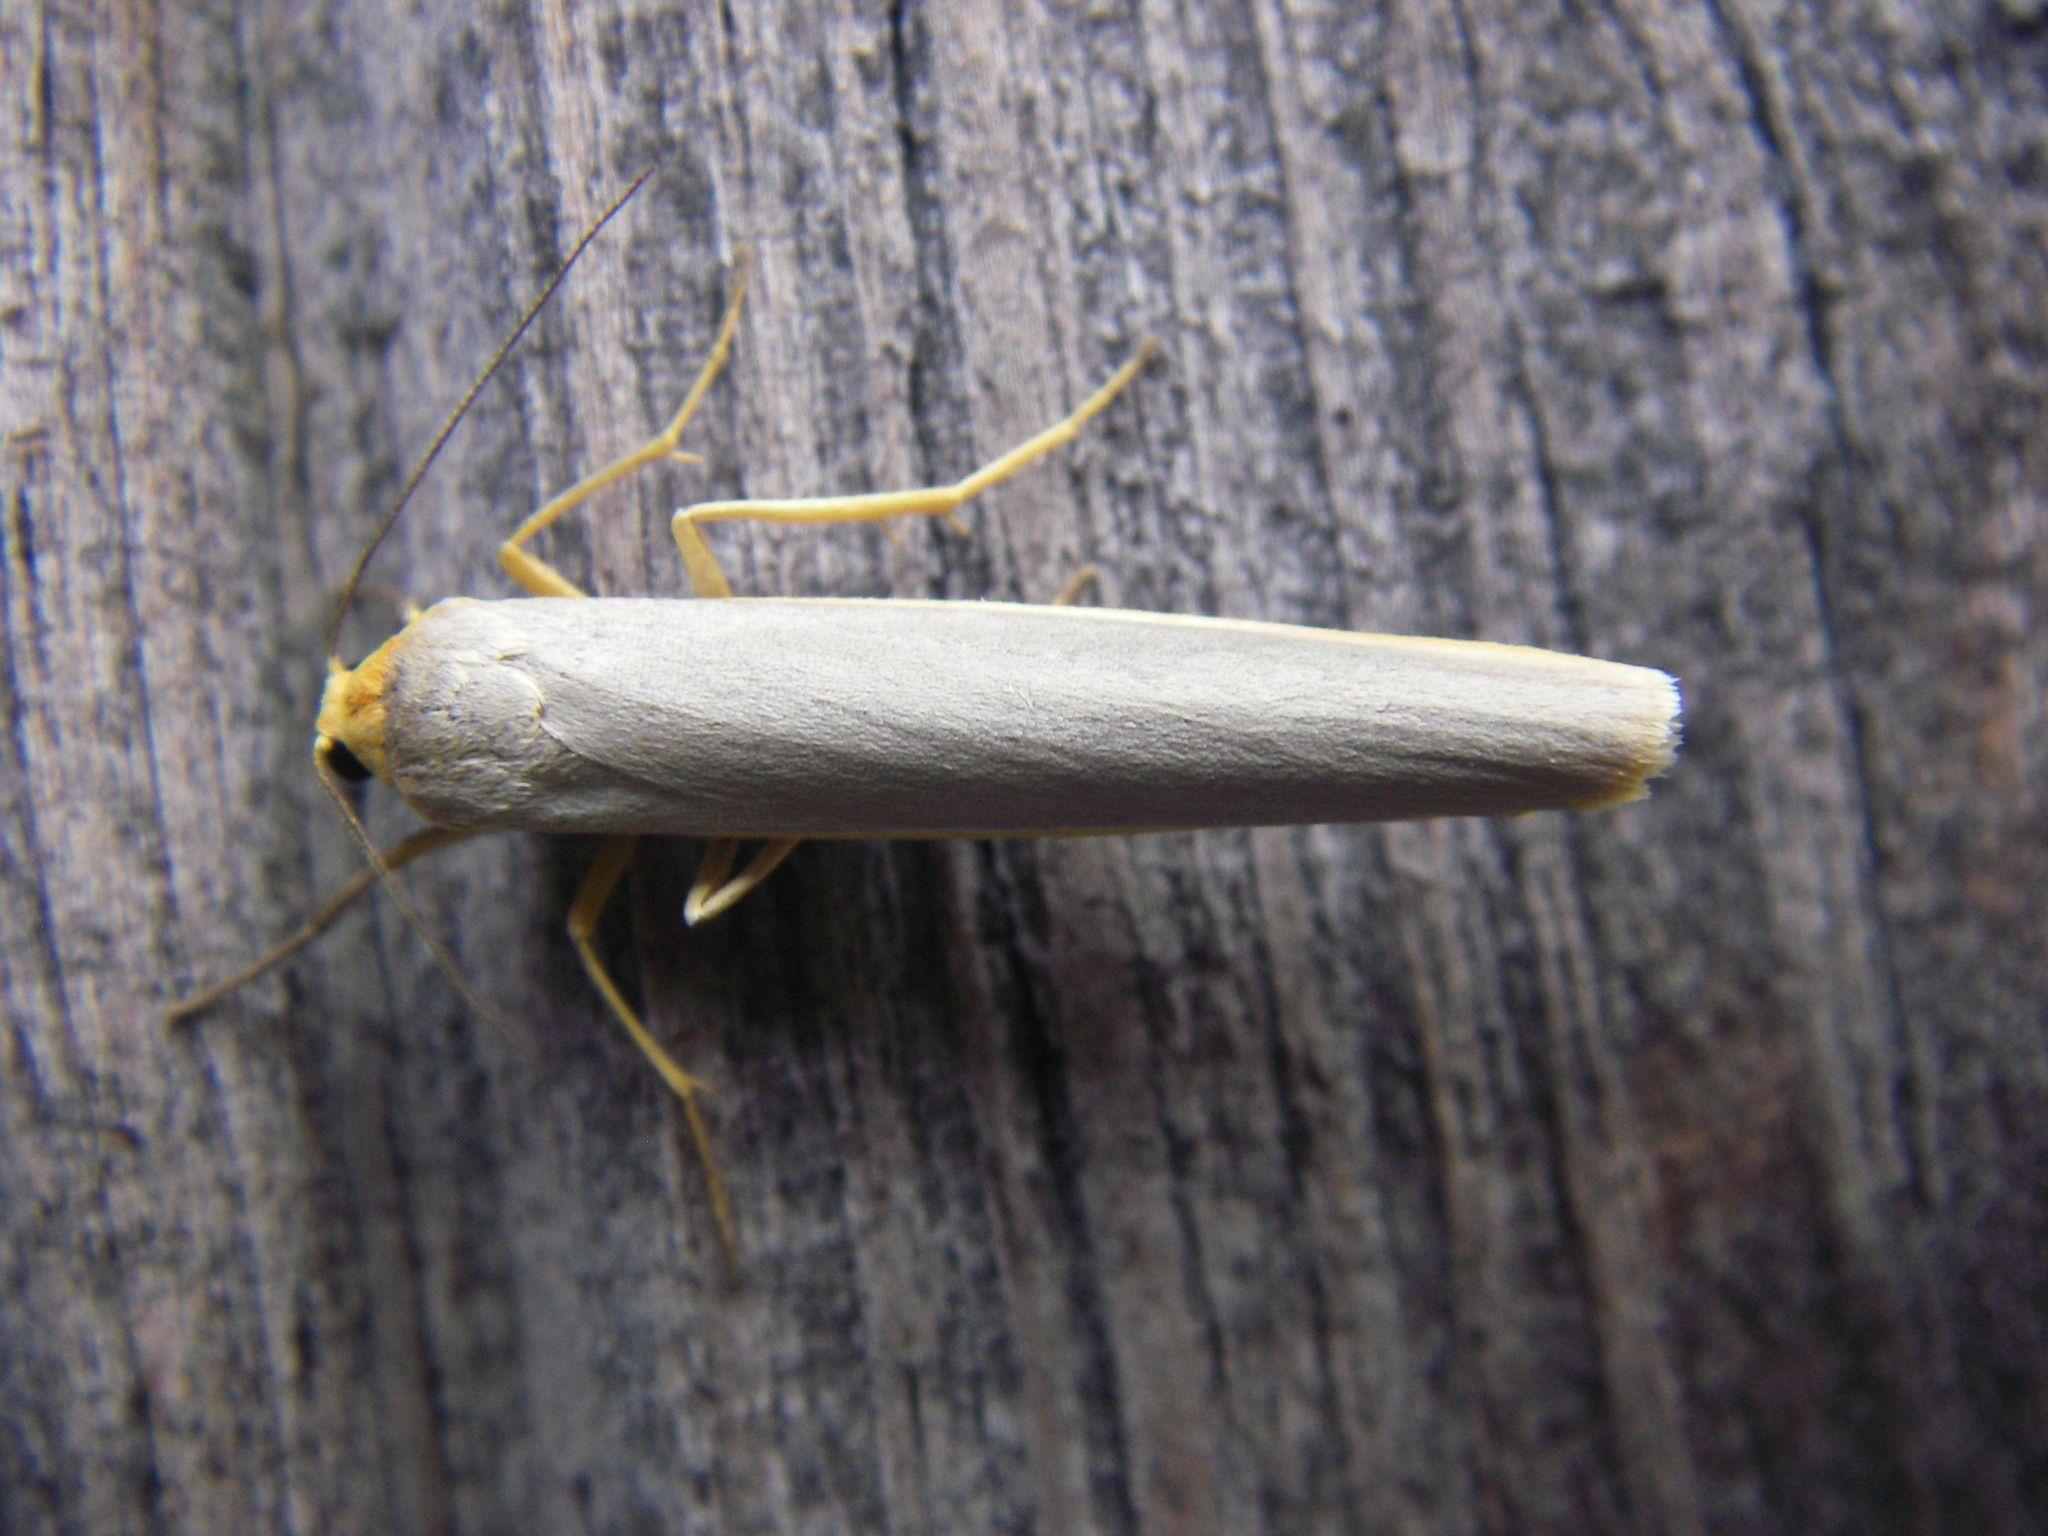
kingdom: Animalia
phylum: Arthropoda
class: Insecta
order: Lepidoptera
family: Erebidae
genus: Manulea
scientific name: Manulea complana
